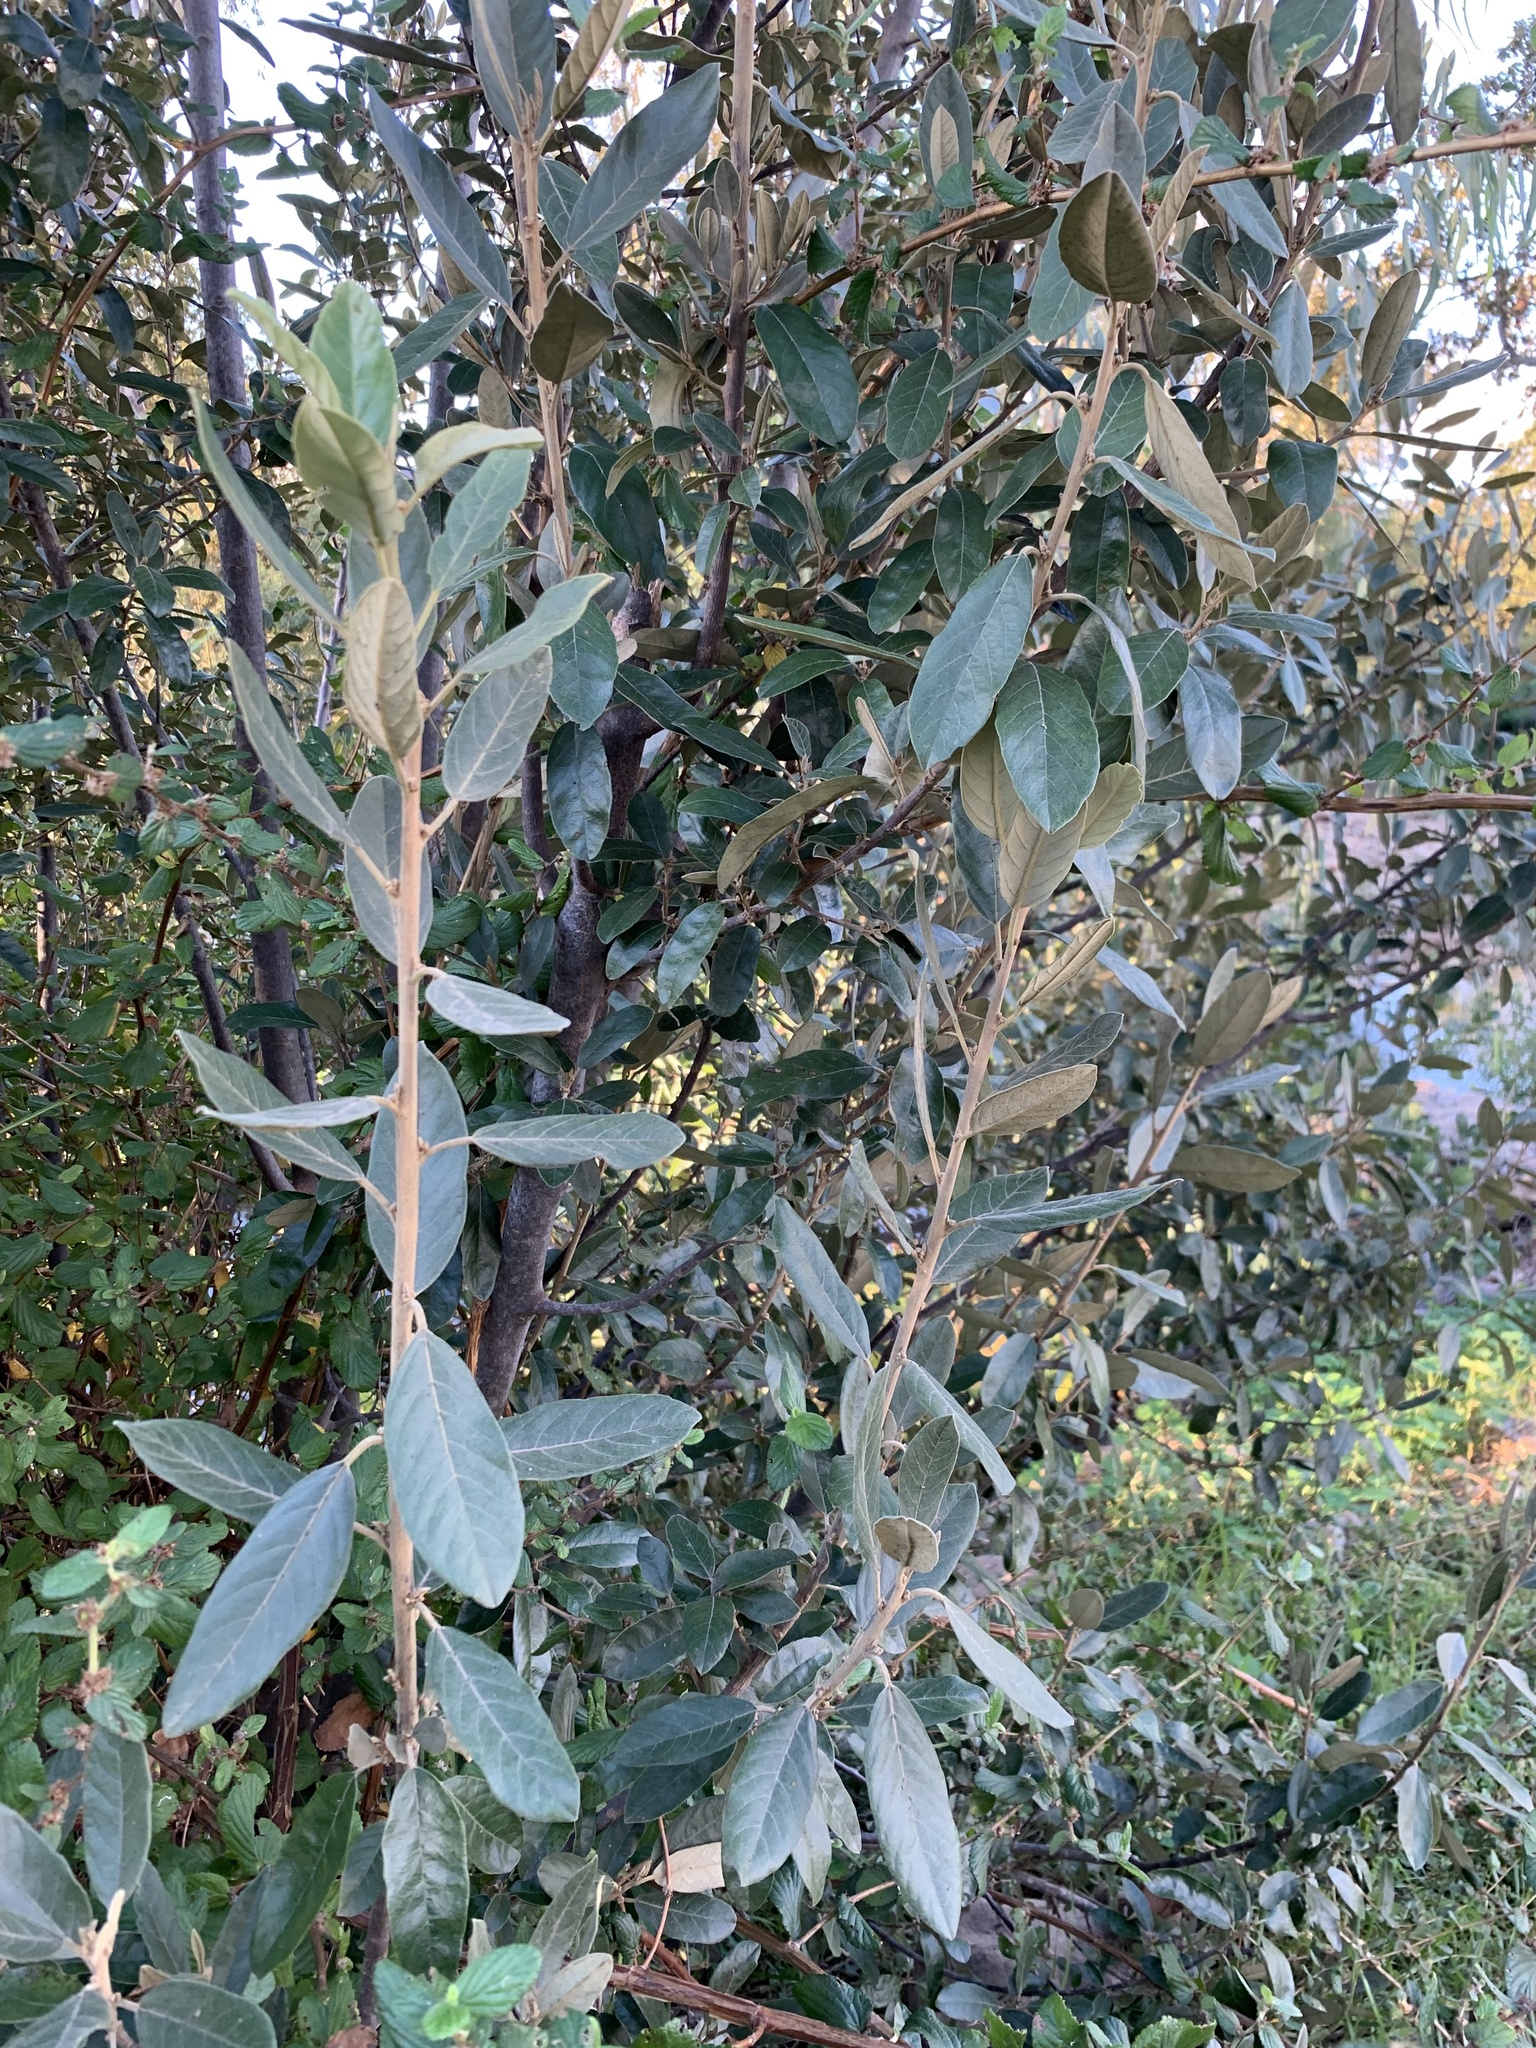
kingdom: Plantae
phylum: Tracheophyta
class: Magnoliopsida
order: Malpighiales
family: Achariaceae
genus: Kiggelaria
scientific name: Kiggelaria africana
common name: Wild peach
